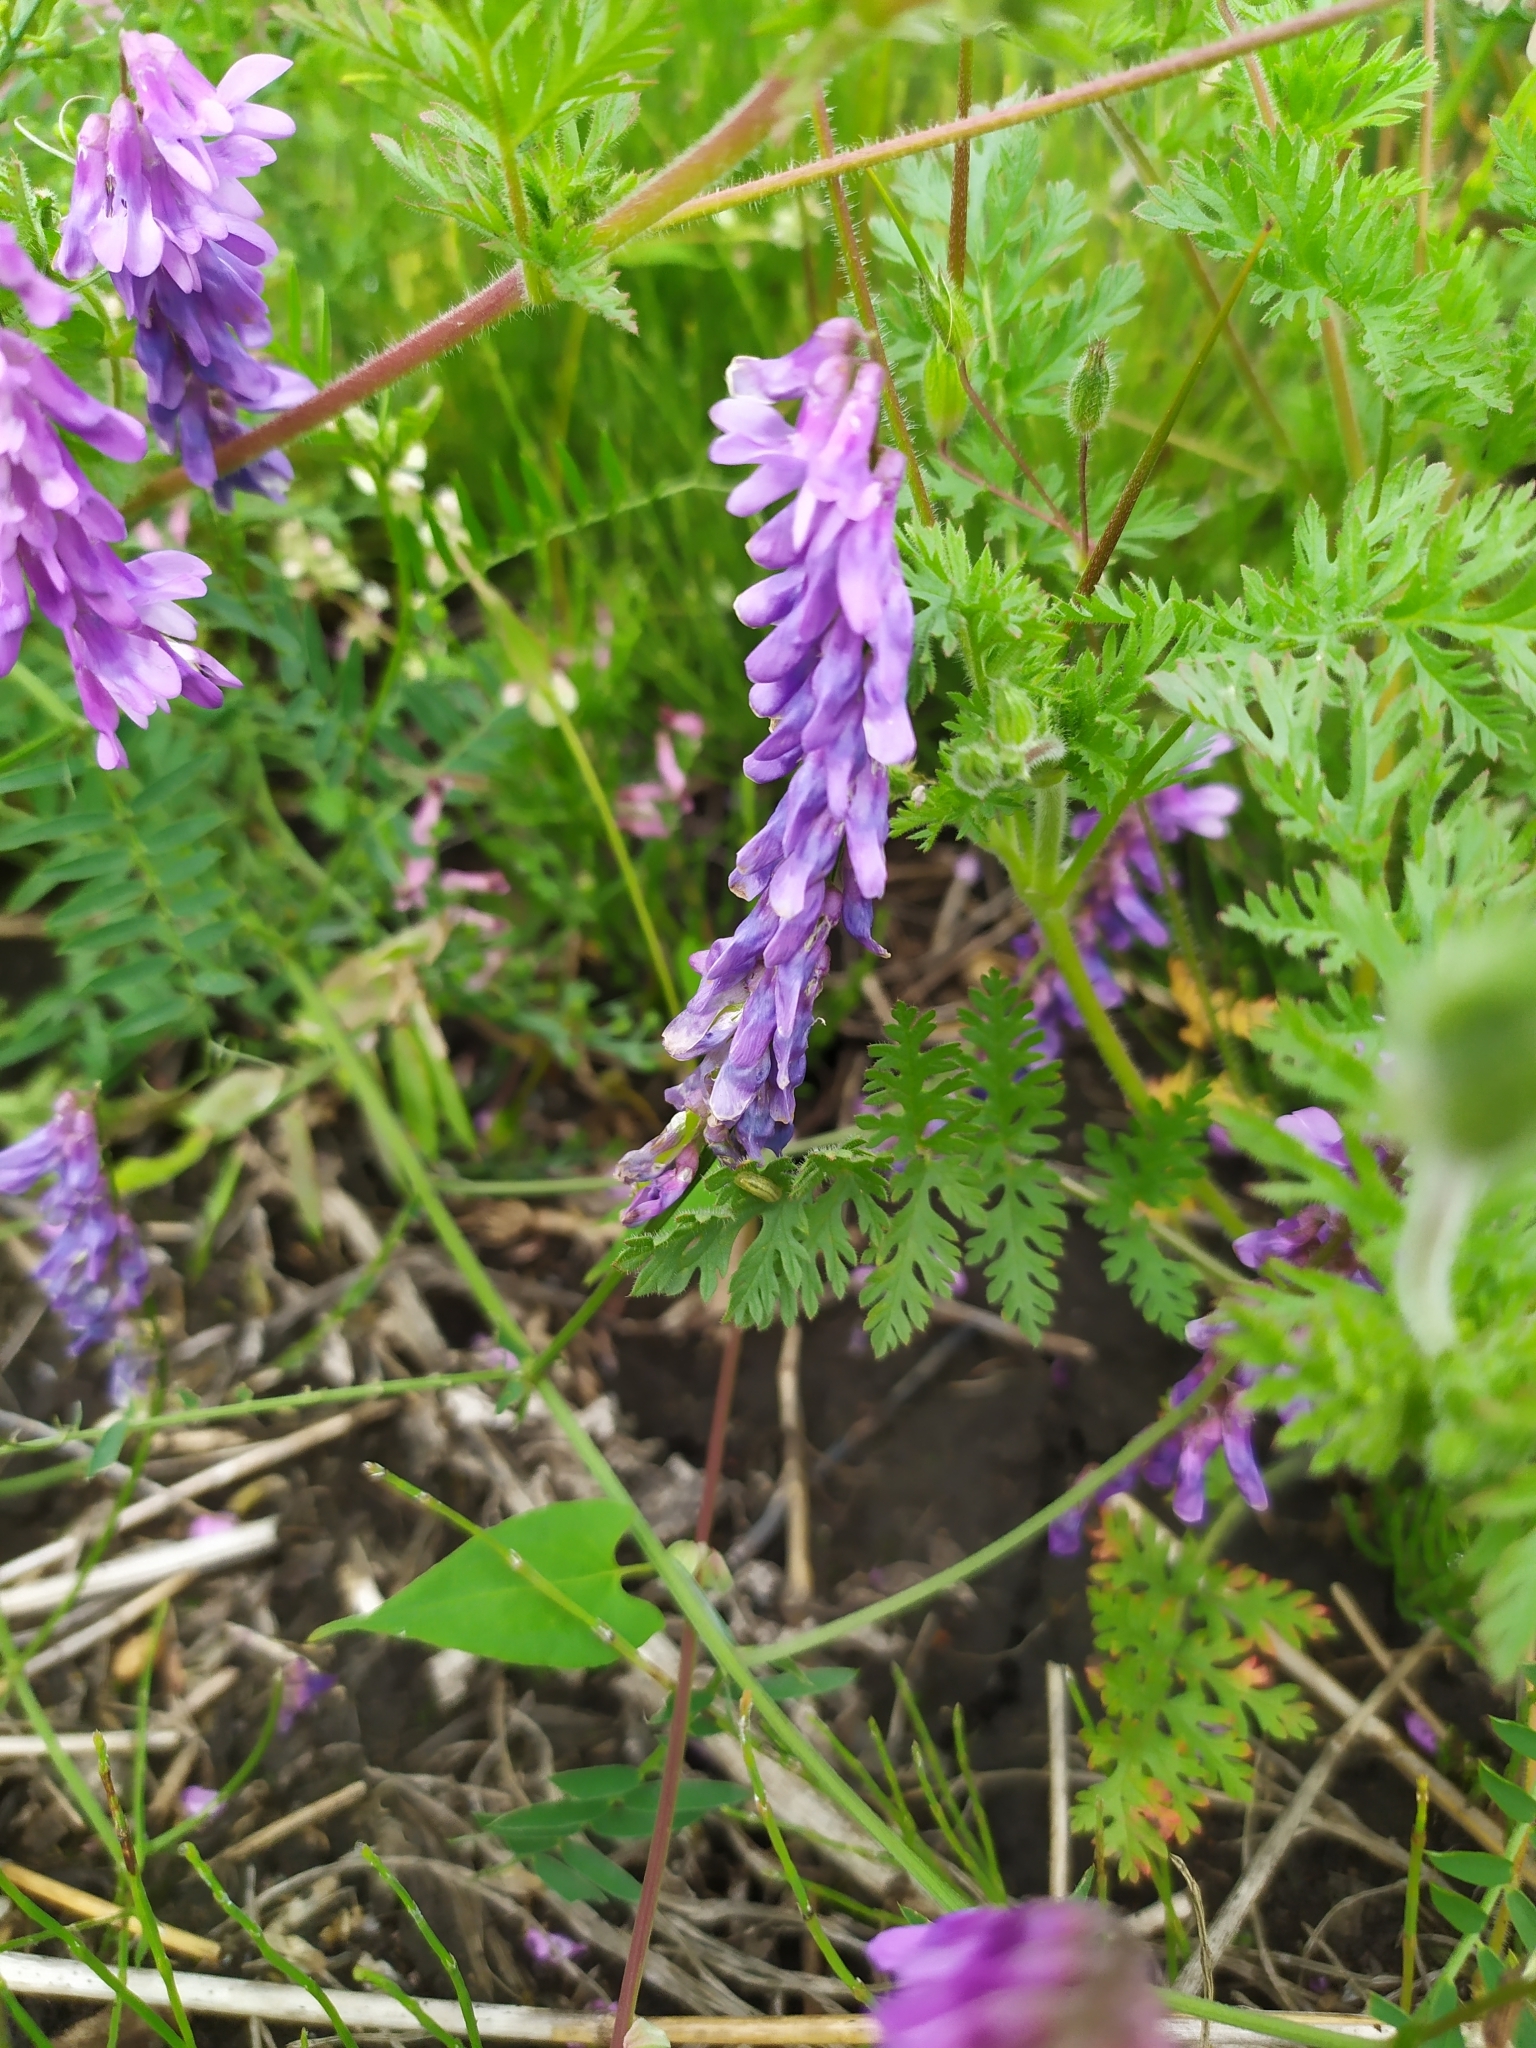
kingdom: Plantae
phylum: Tracheophyta
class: Magnoliopsida
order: Fabales
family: Fabaceae
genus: Vicia
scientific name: Vicia cracca
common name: Bird vetch
